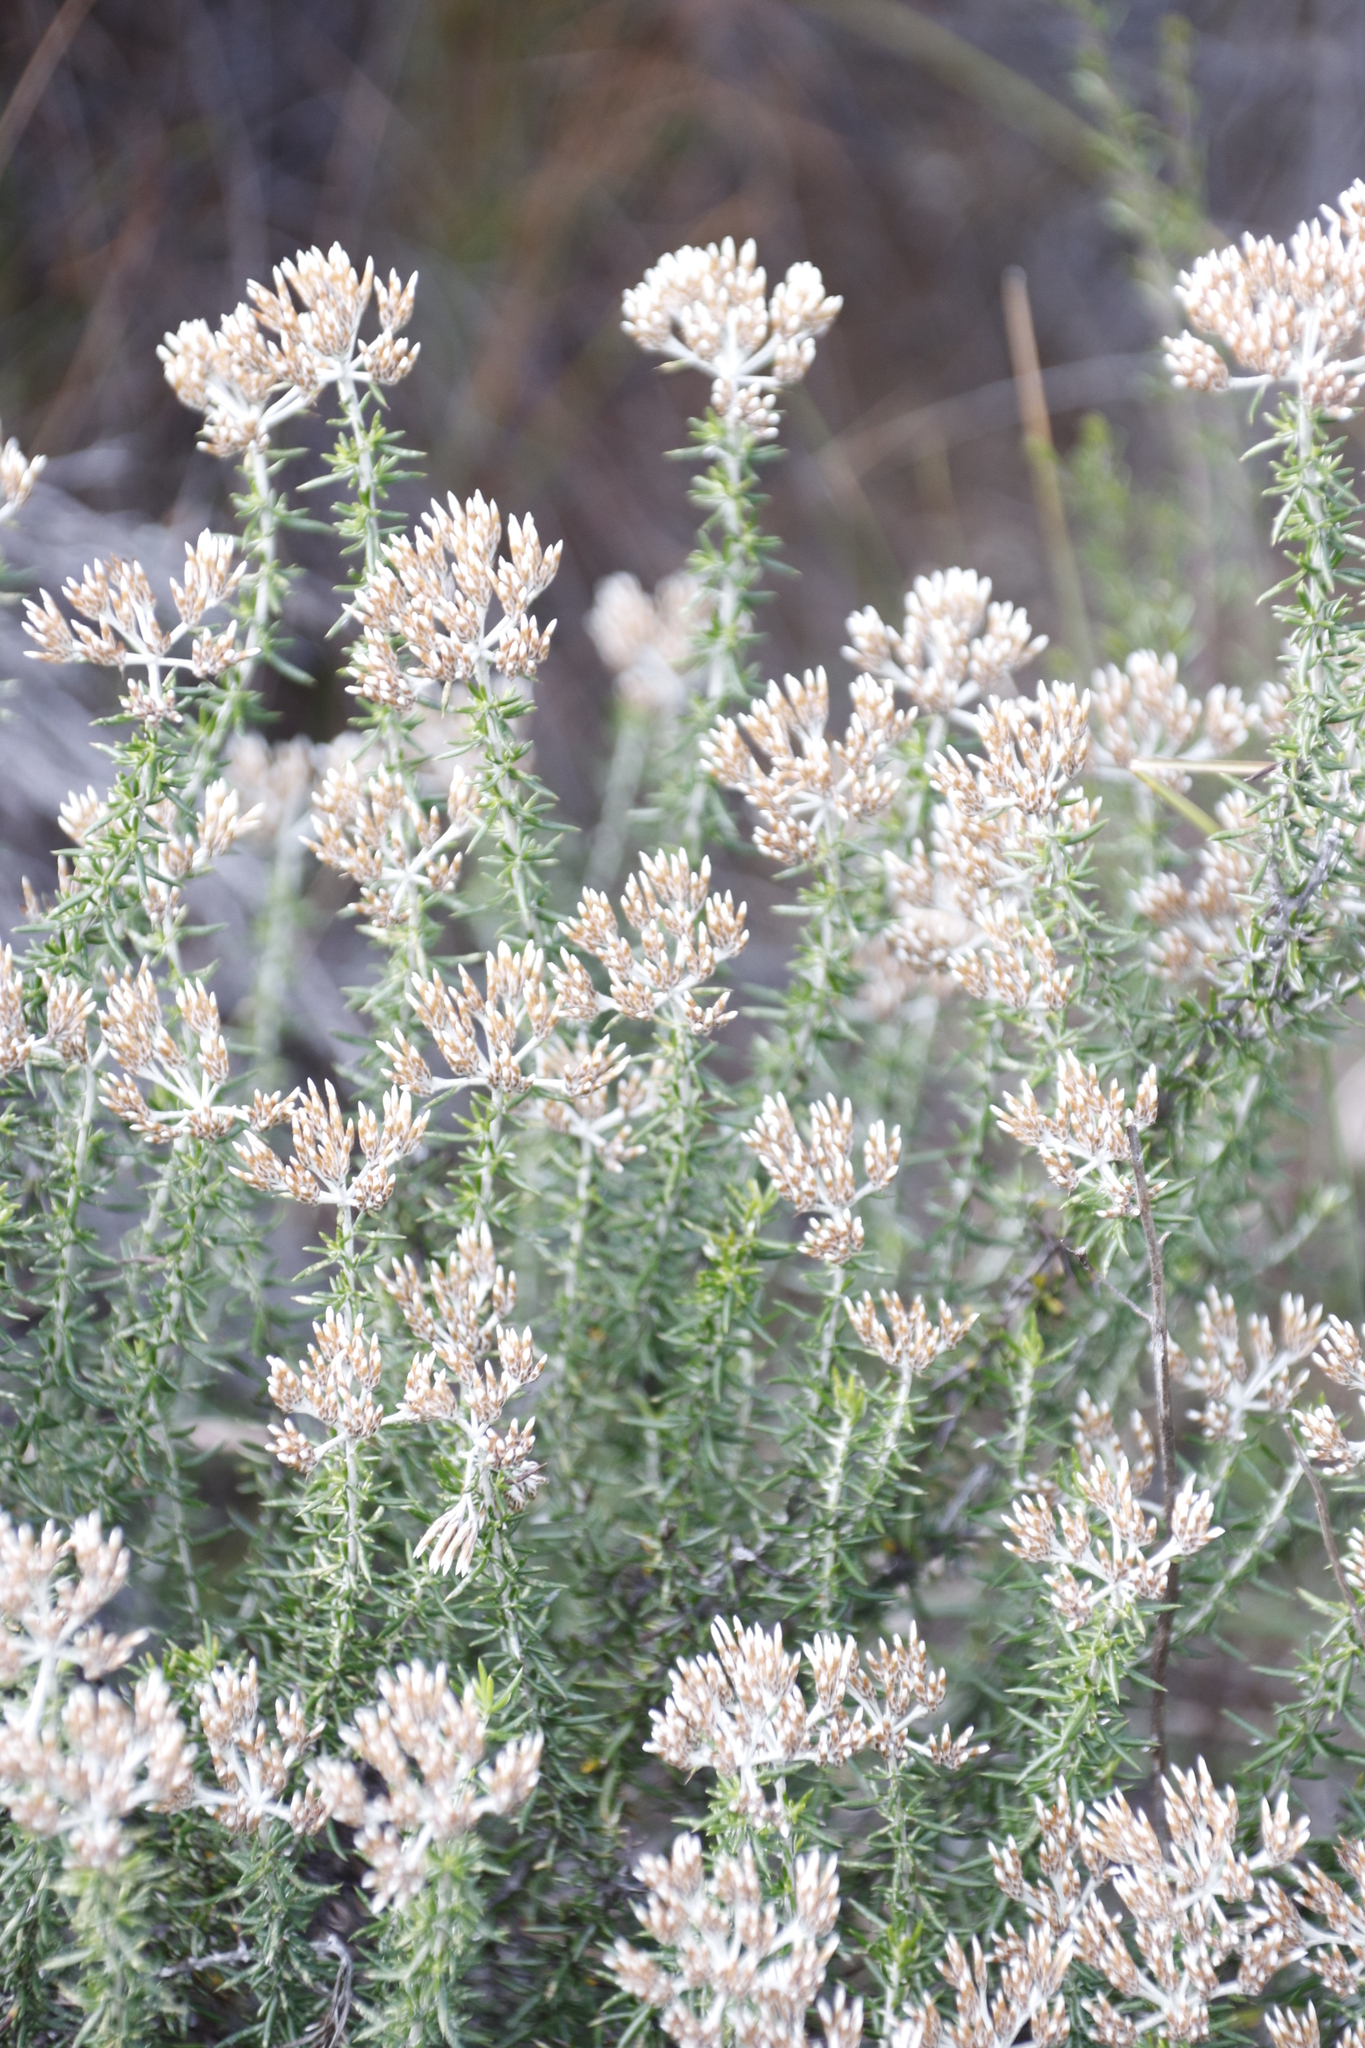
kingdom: Plantae
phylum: Tracheophyta
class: Magnoliopsida
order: Asterales
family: Asteraceae
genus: Metalasia
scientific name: Metalasia densa
